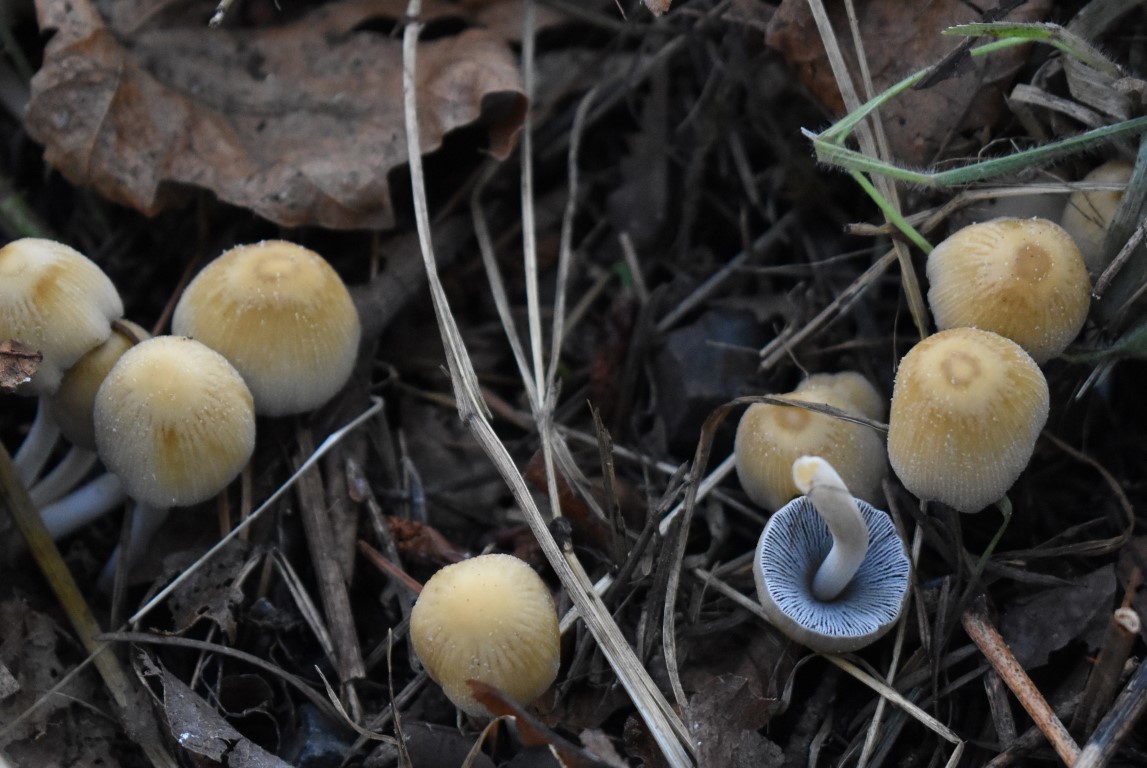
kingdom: Fungi
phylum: Basidiomycota
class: Agaricomycetes
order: Agaricales
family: Psathyrellaceae
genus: Coprinellus
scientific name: Coprinellus micaceus
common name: Glistening ink-cap
